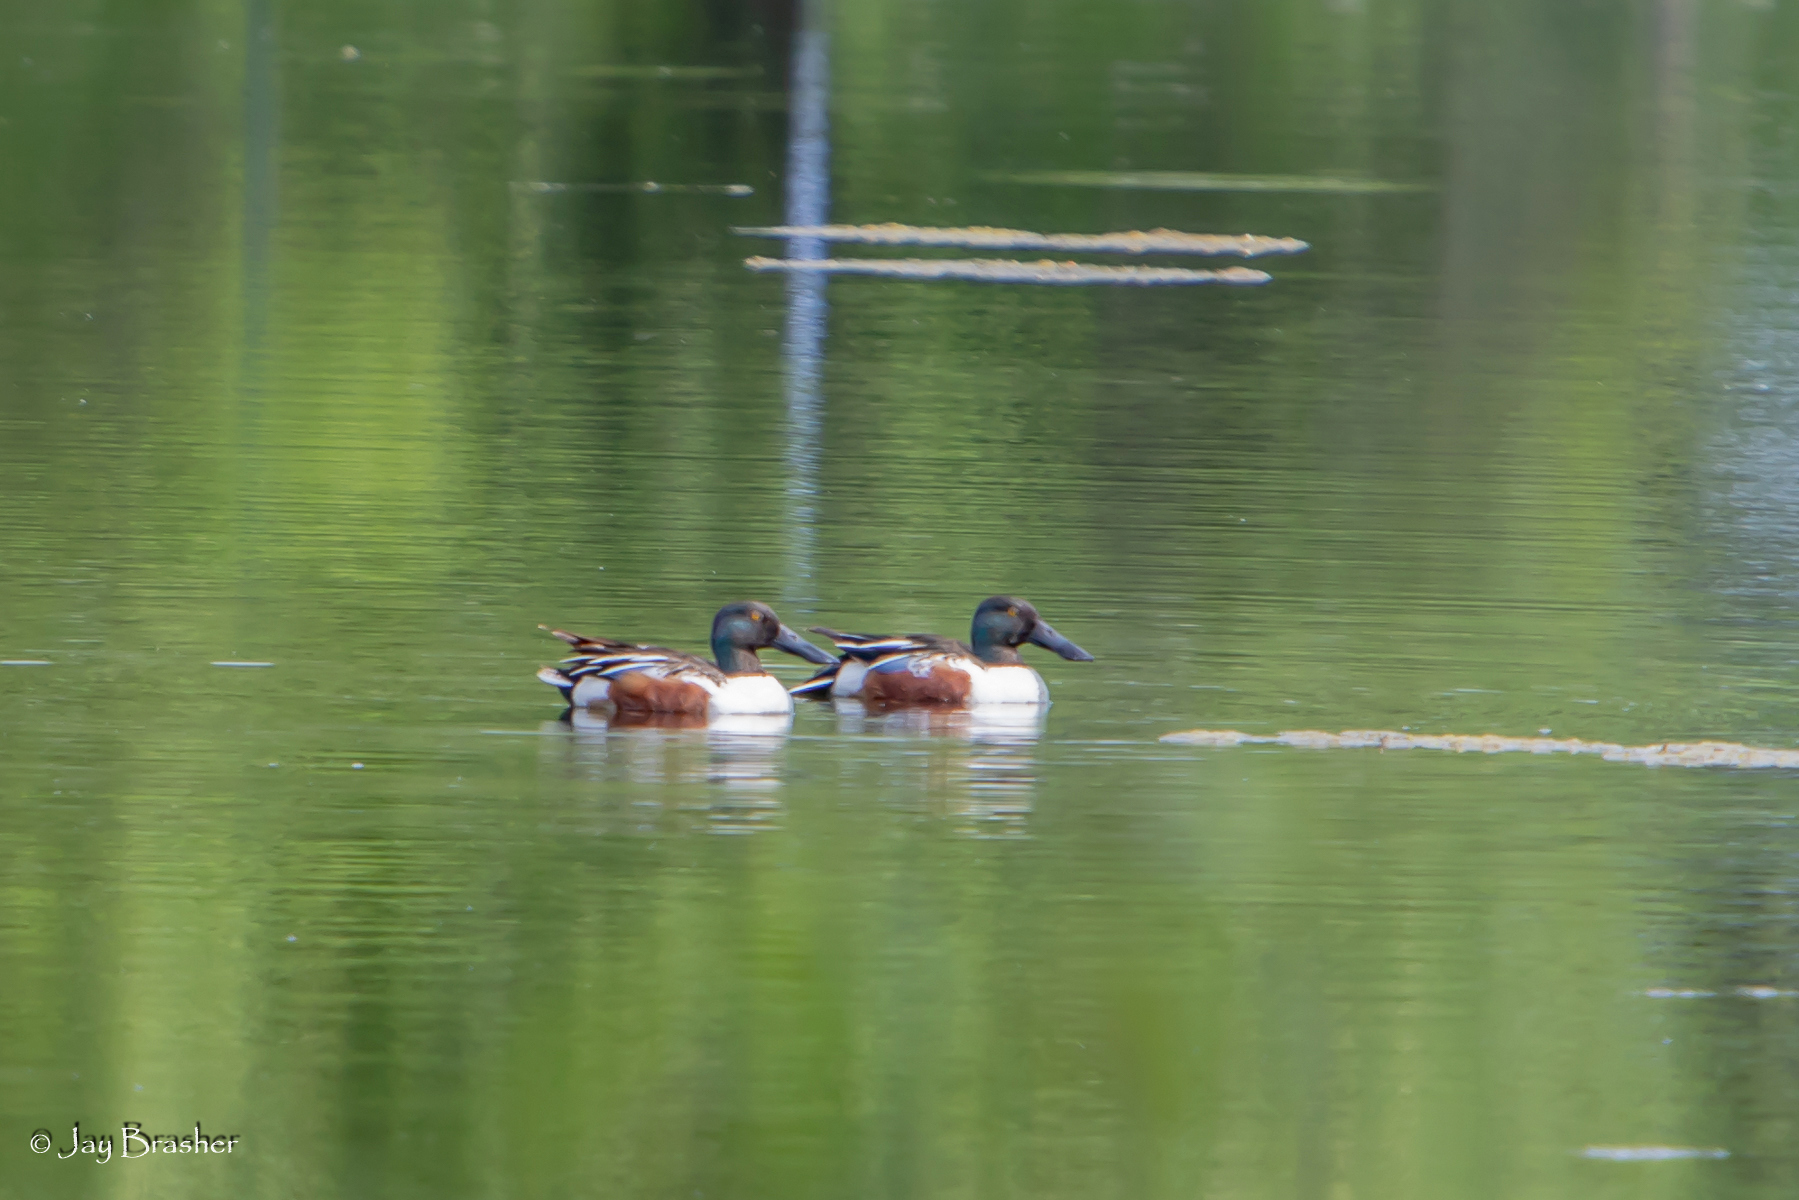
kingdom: Animalia
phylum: Chordata
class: Aves
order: Anseriformes
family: Anatidae
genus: Spatula
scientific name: Spatula clypeata
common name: Northern shoveler
